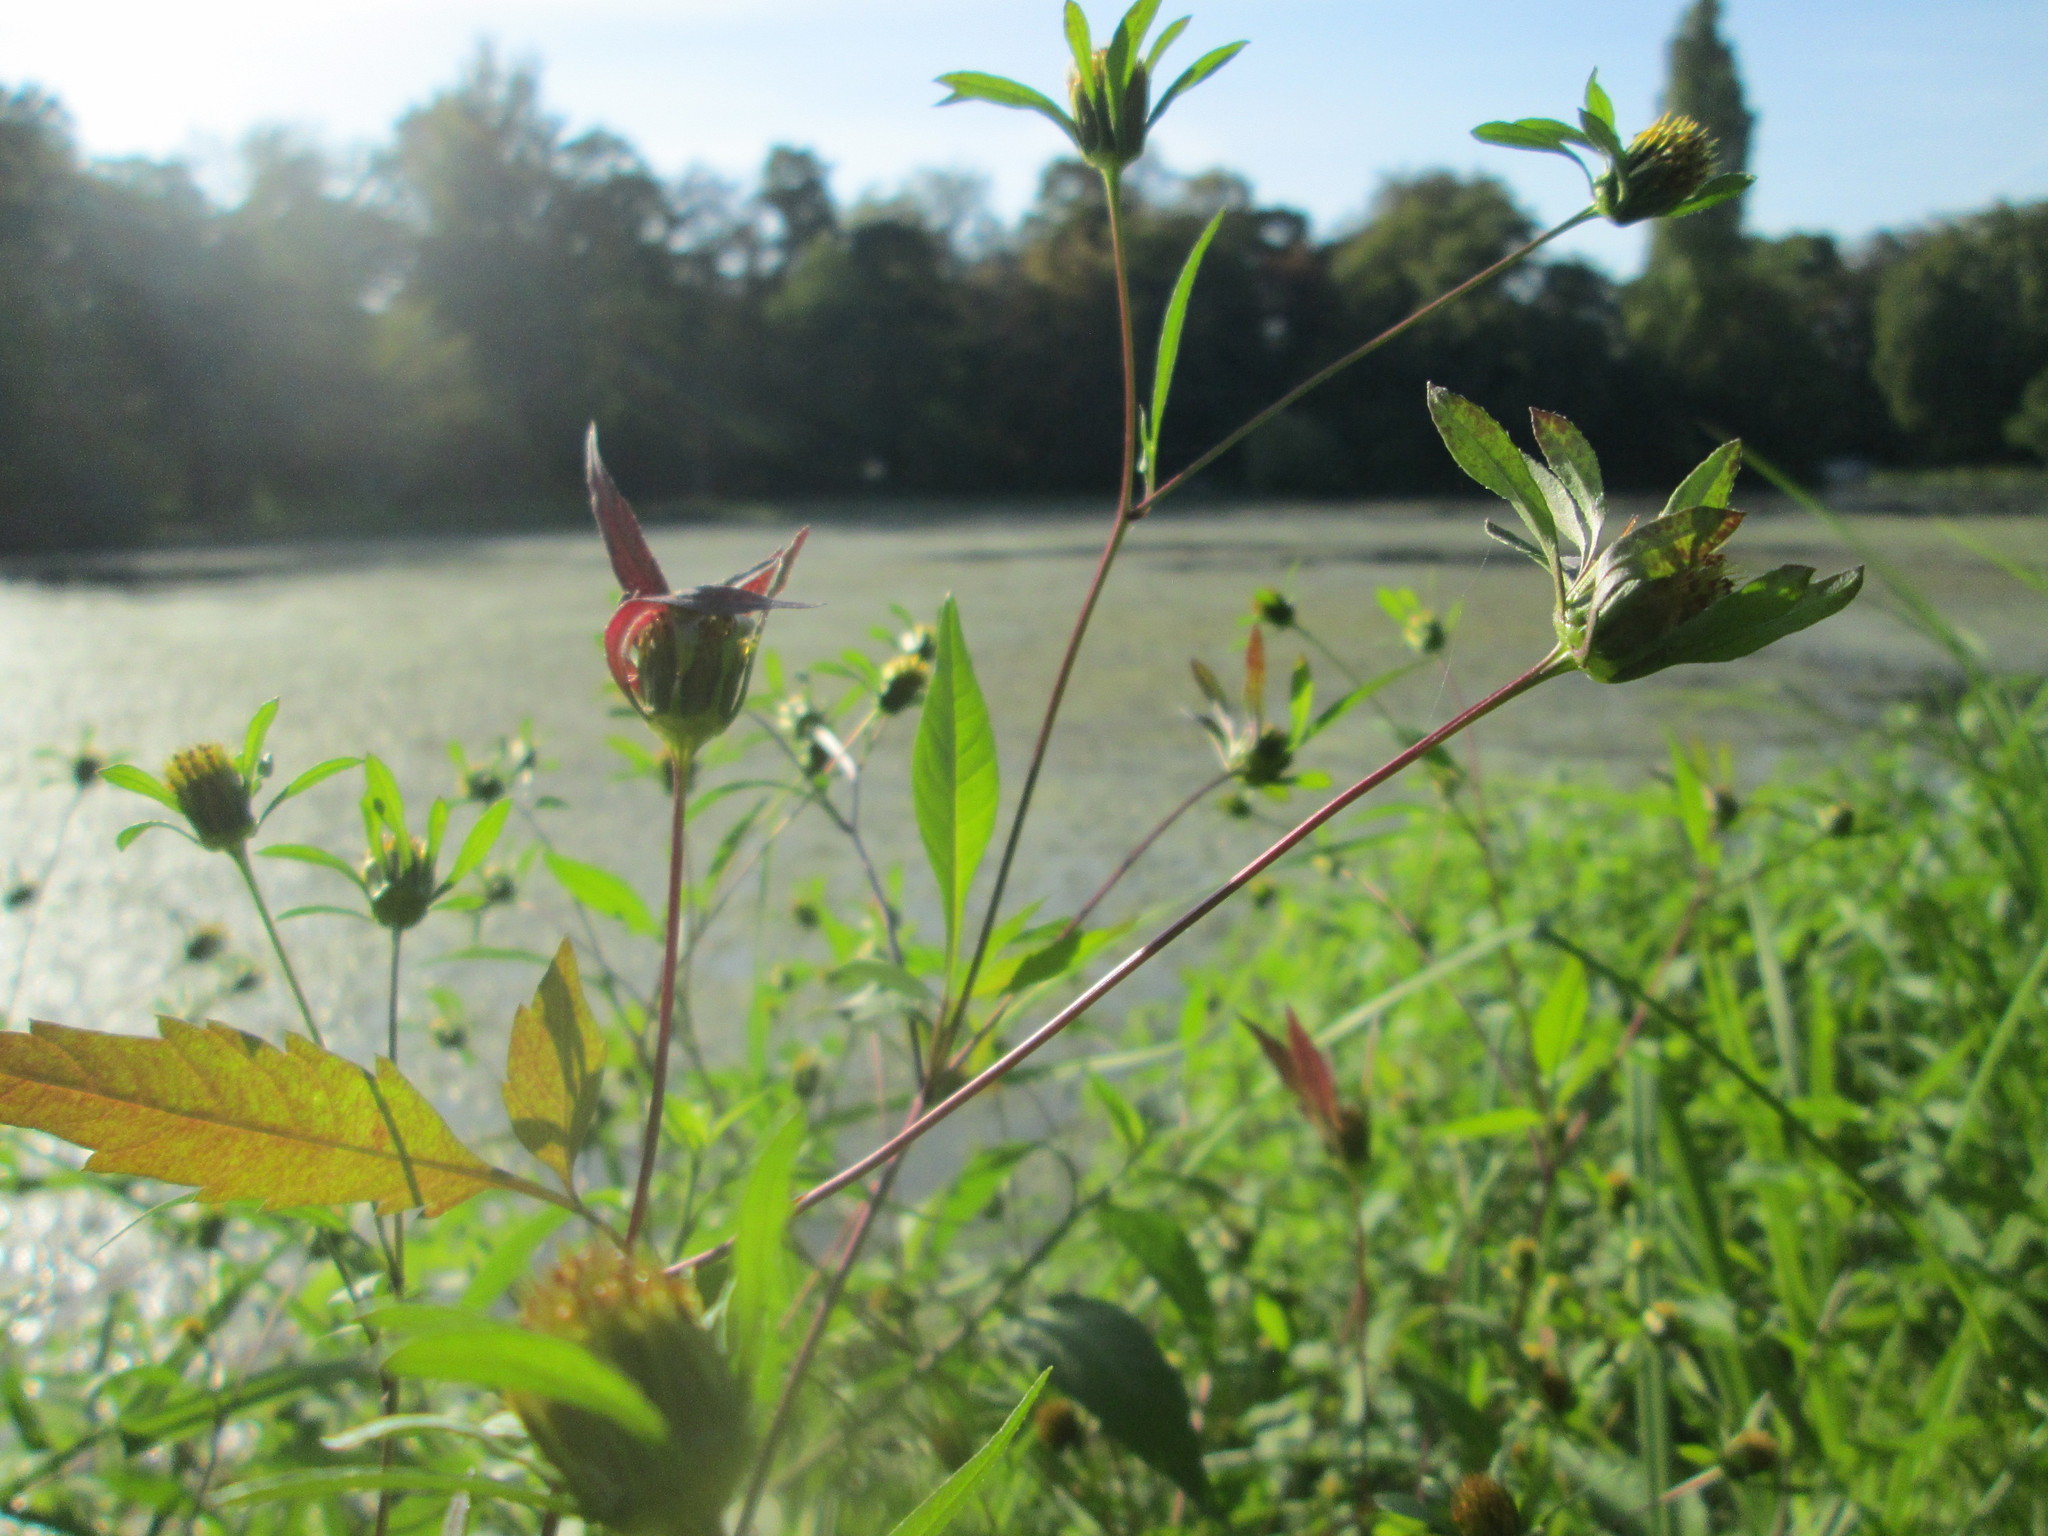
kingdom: Plantae
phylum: Tracheophyta
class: Magnoliopsida
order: Asterales
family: Asteraceae
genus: Bidens
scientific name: Bidens frondosa
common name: Beggarticks
